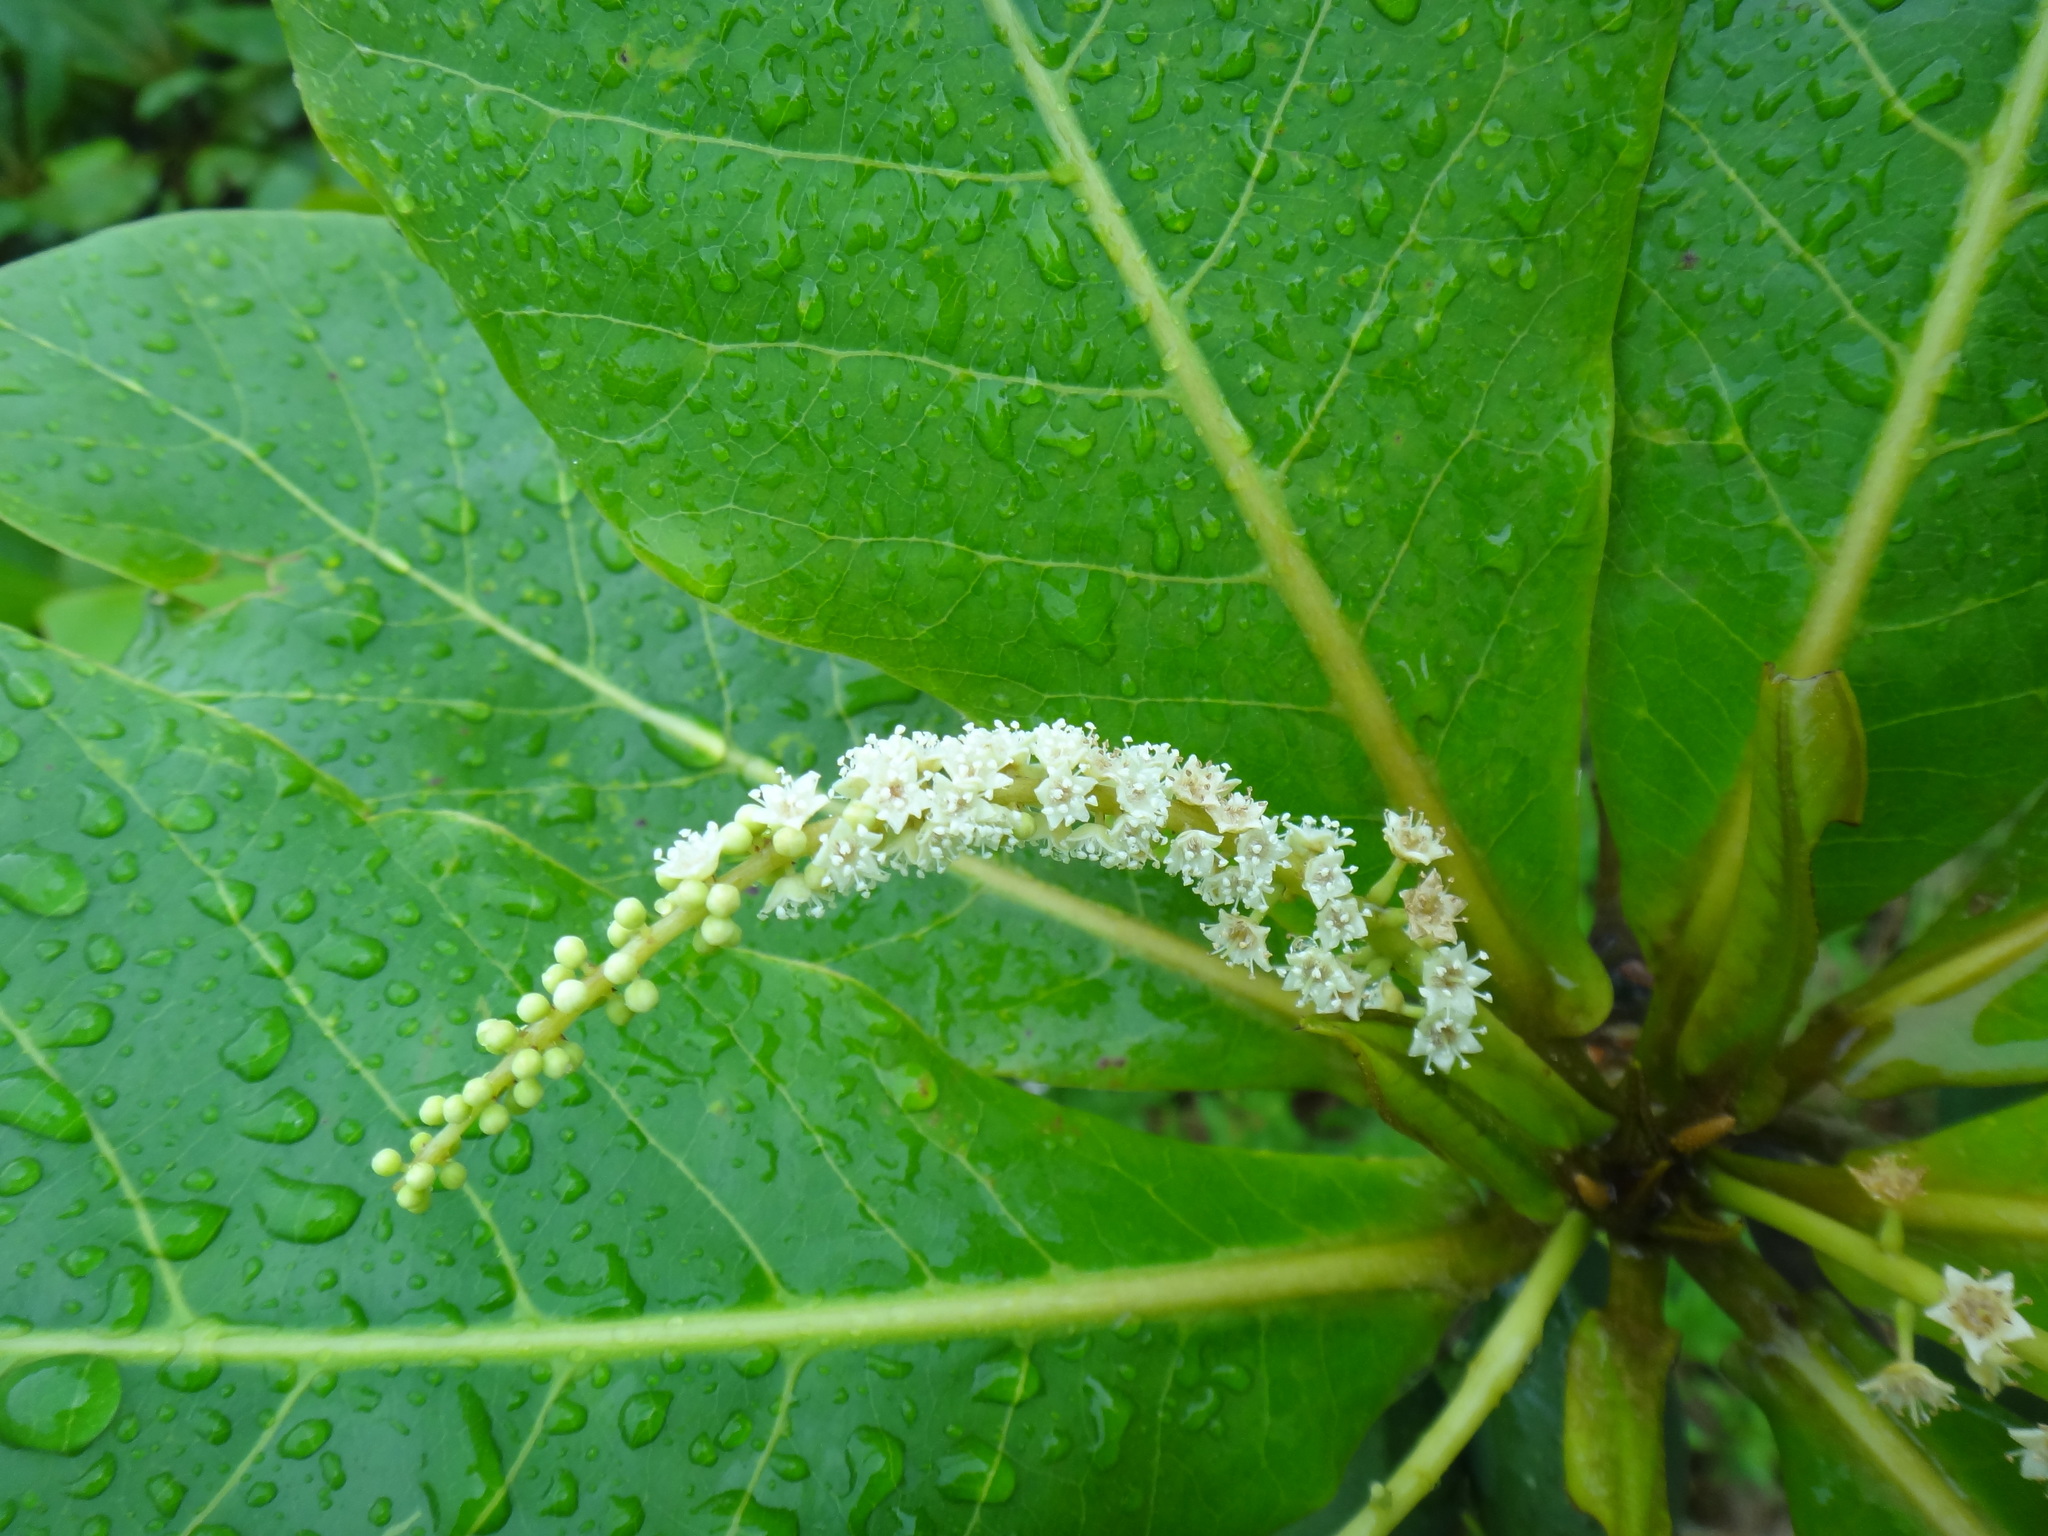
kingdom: Plantae
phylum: Tracheophyta
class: Magnoliopsida
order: Myrtales
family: Combretaceae
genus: Terminalia
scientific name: Terminalia catappa
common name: Tropical almond
